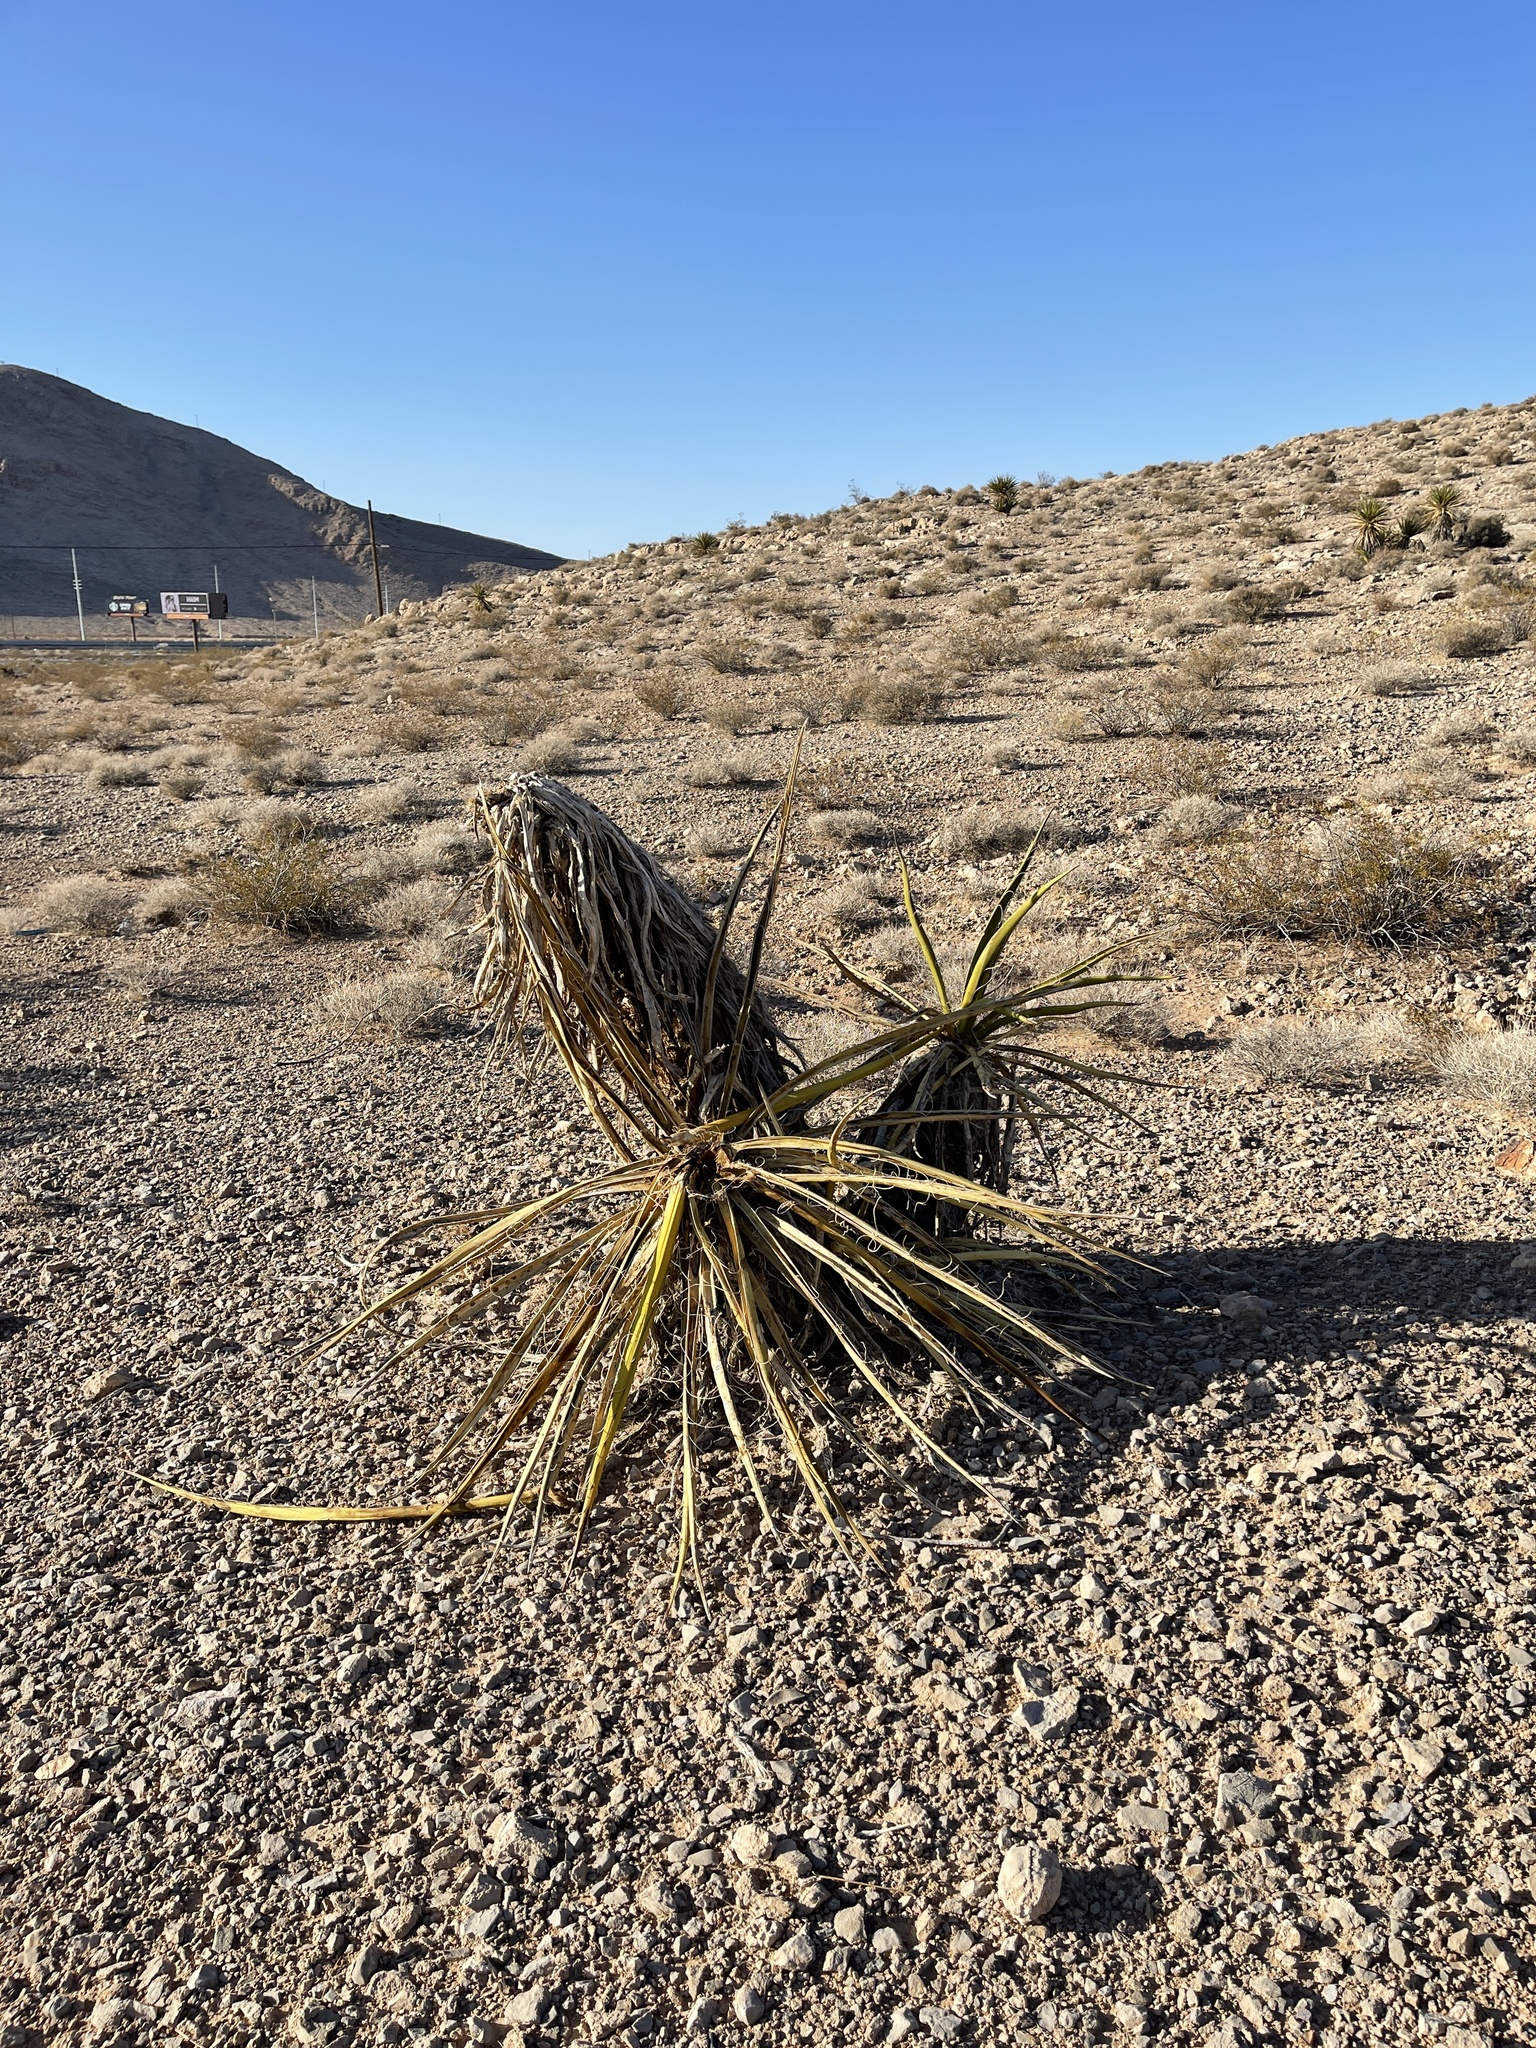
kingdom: Plantae
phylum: Tracheophyta
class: Liliopsida
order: Asparagales
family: Asparagaceae
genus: Yucca
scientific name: Yucca schidigera
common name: Mojave yucca
